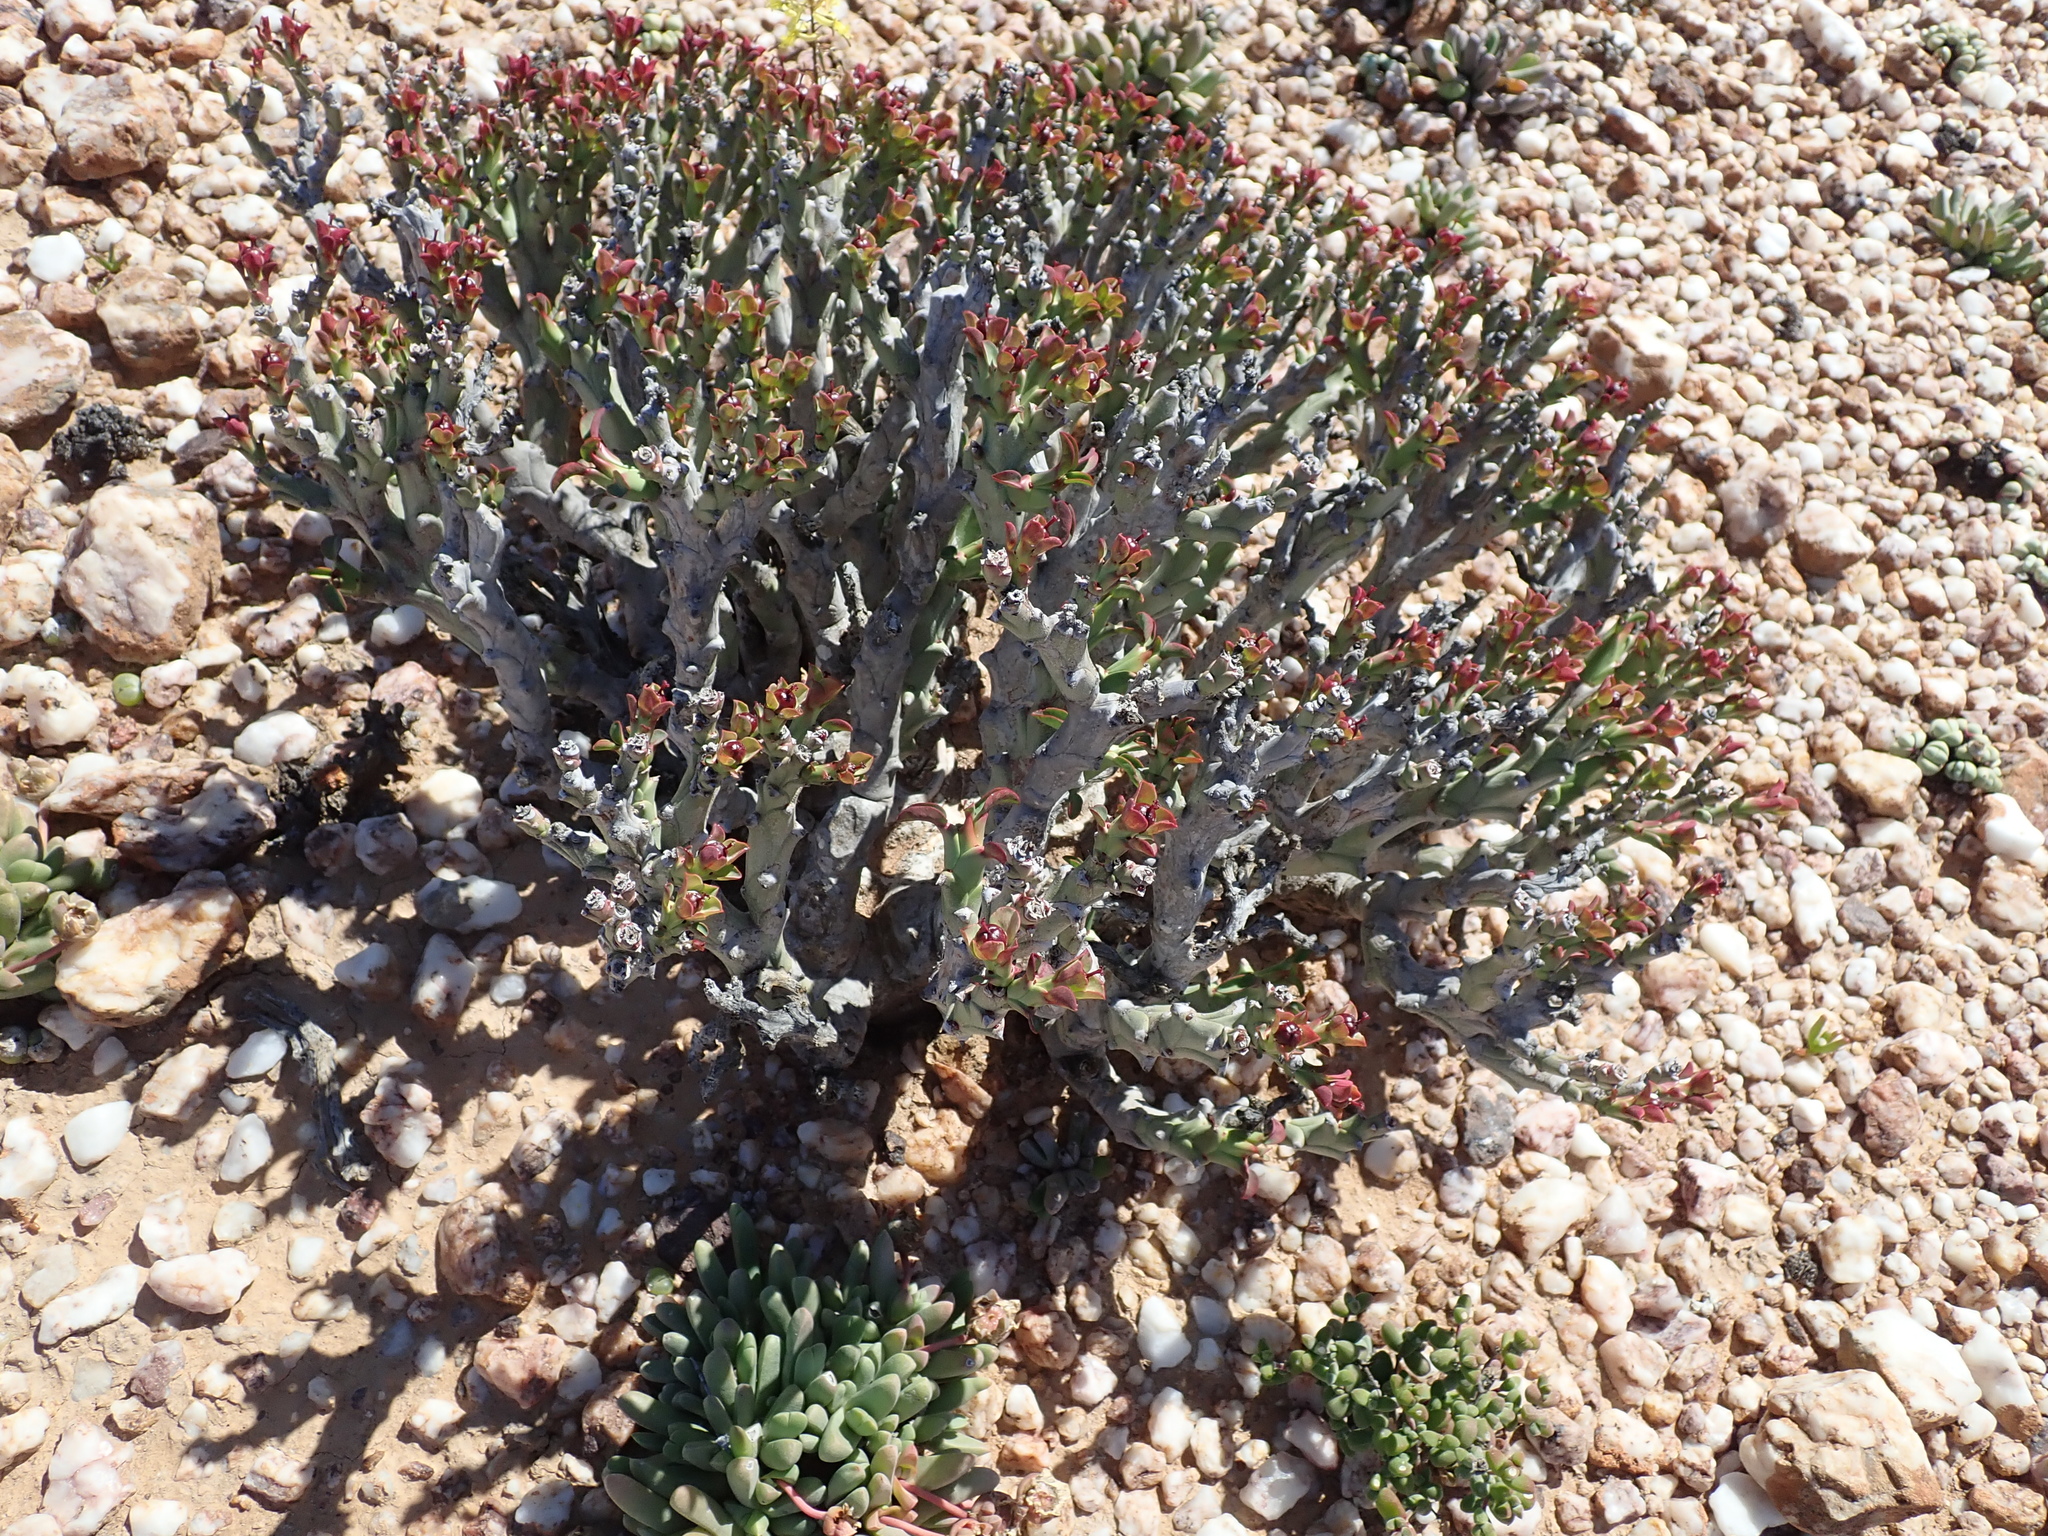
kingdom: Plantae
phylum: Tracheophyta
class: Magnoliopsida
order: Malpighiales
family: Euphorbiaceae
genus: Euphorbia
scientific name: Euphorbia hamata
